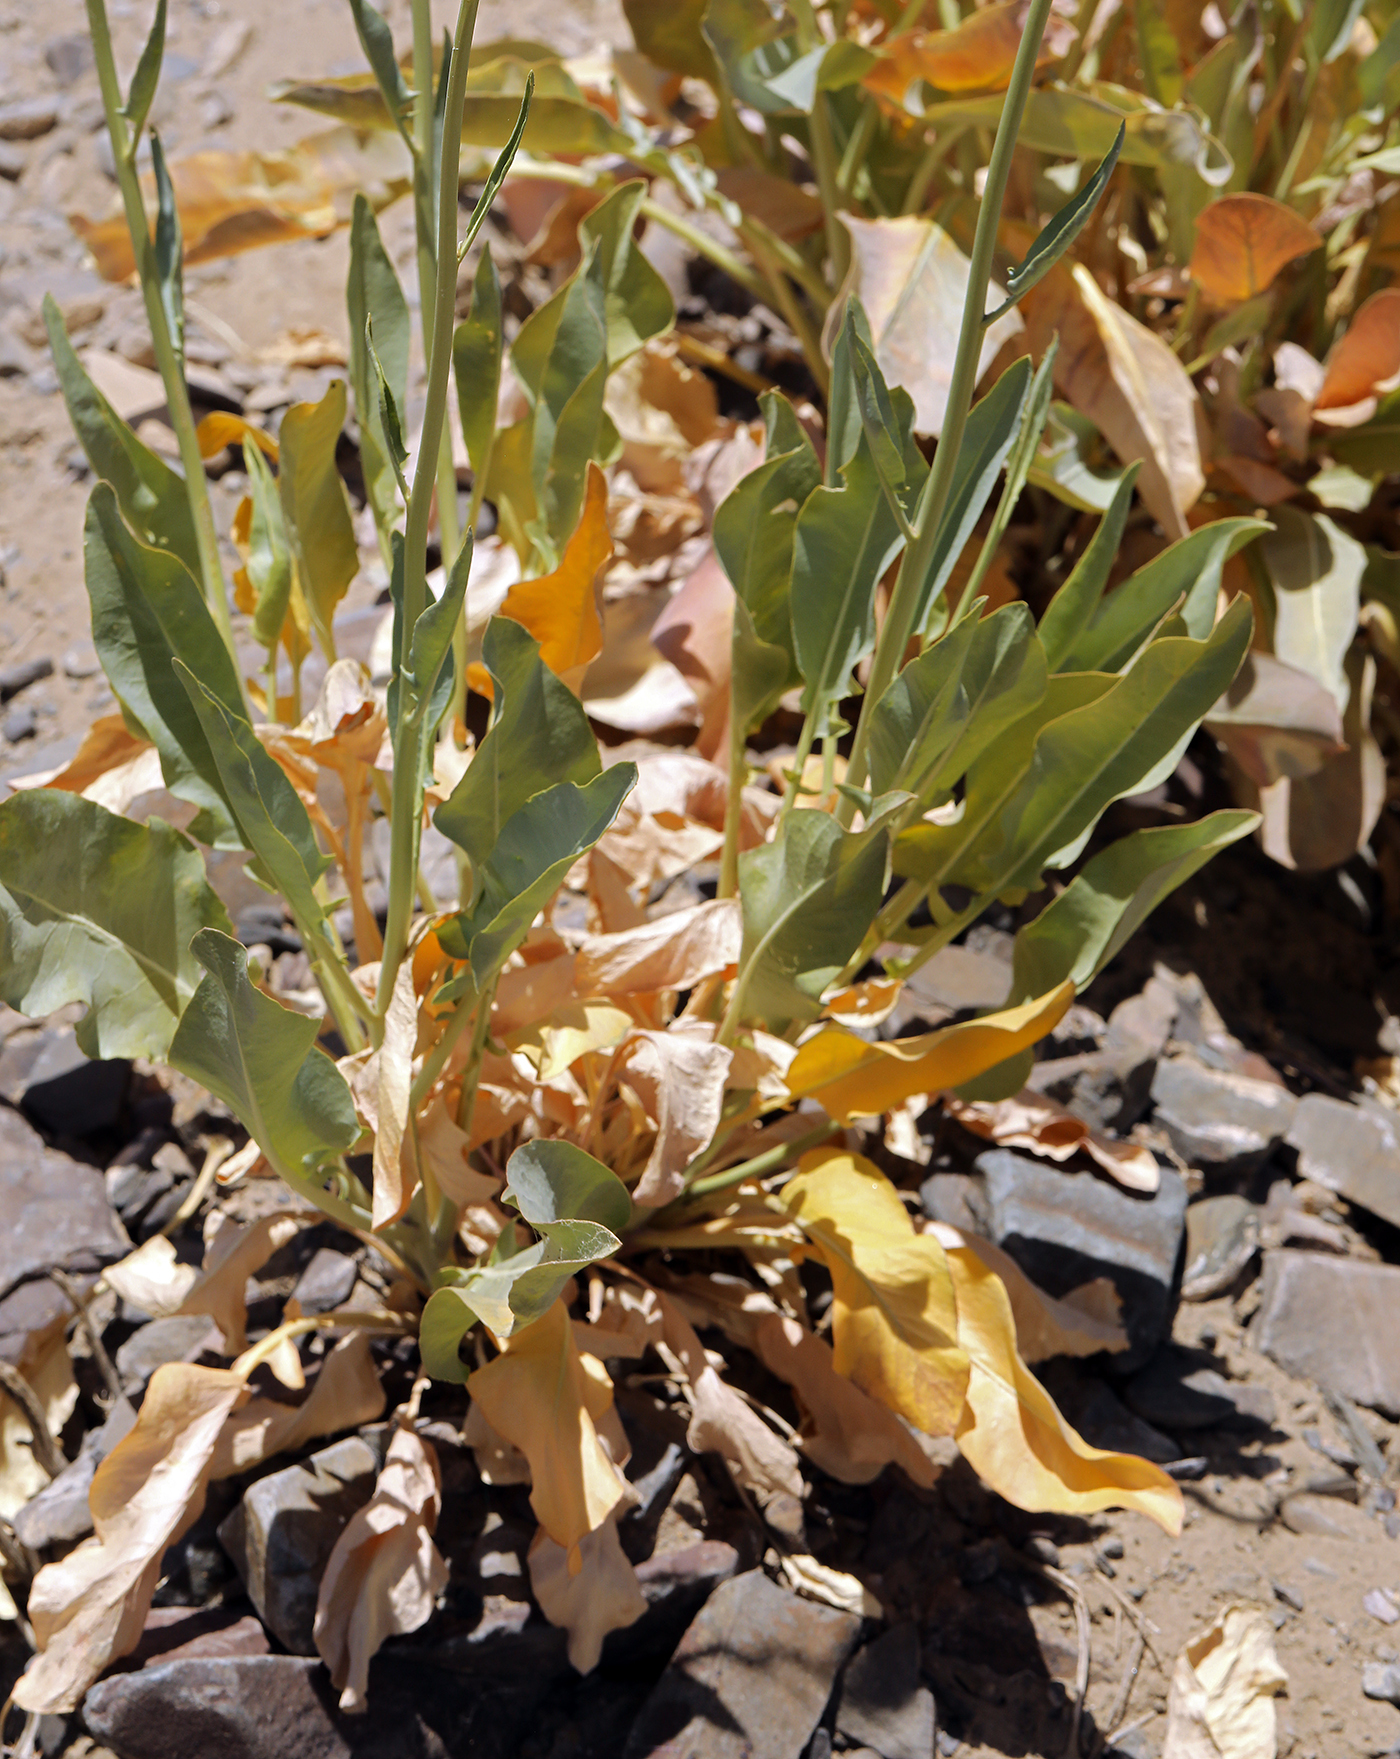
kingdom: Plantae
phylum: Tracheophyta
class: Magnoliopsida
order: Brassicales
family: Brassicaceae
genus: Stanleya
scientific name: Stanleya elata
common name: Panamint prince's plume
